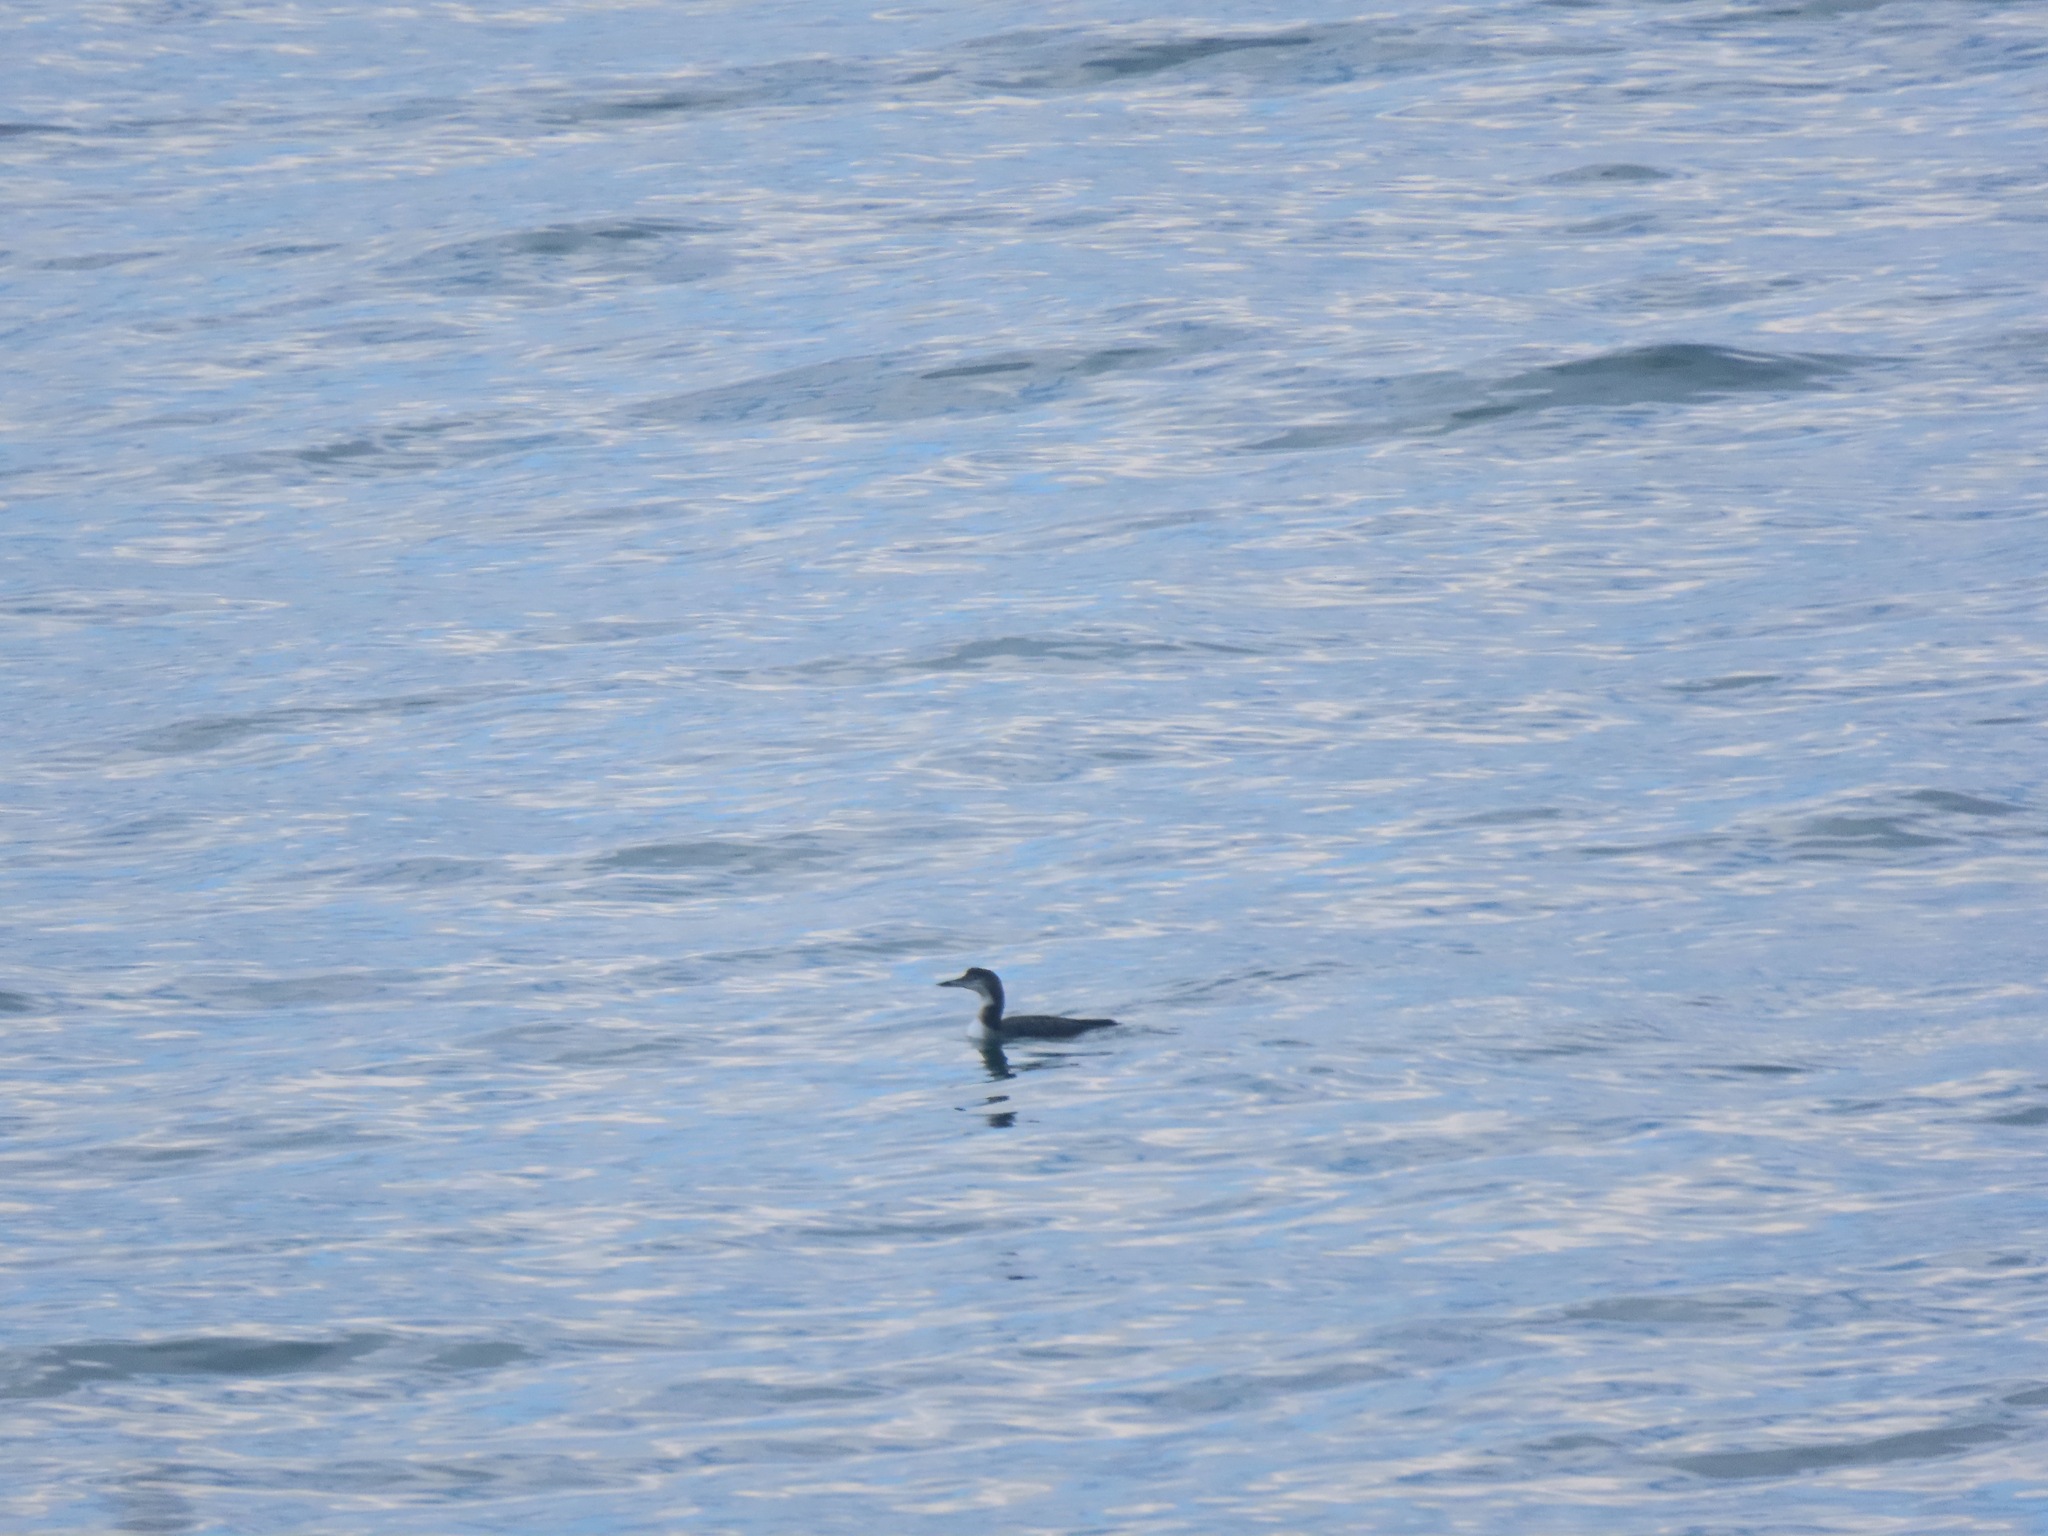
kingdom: Animalia
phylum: Chordata
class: Aves
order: Gaviiformes
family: Gaviidae
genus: Gavia
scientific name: Gavia immer
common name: Common loon
